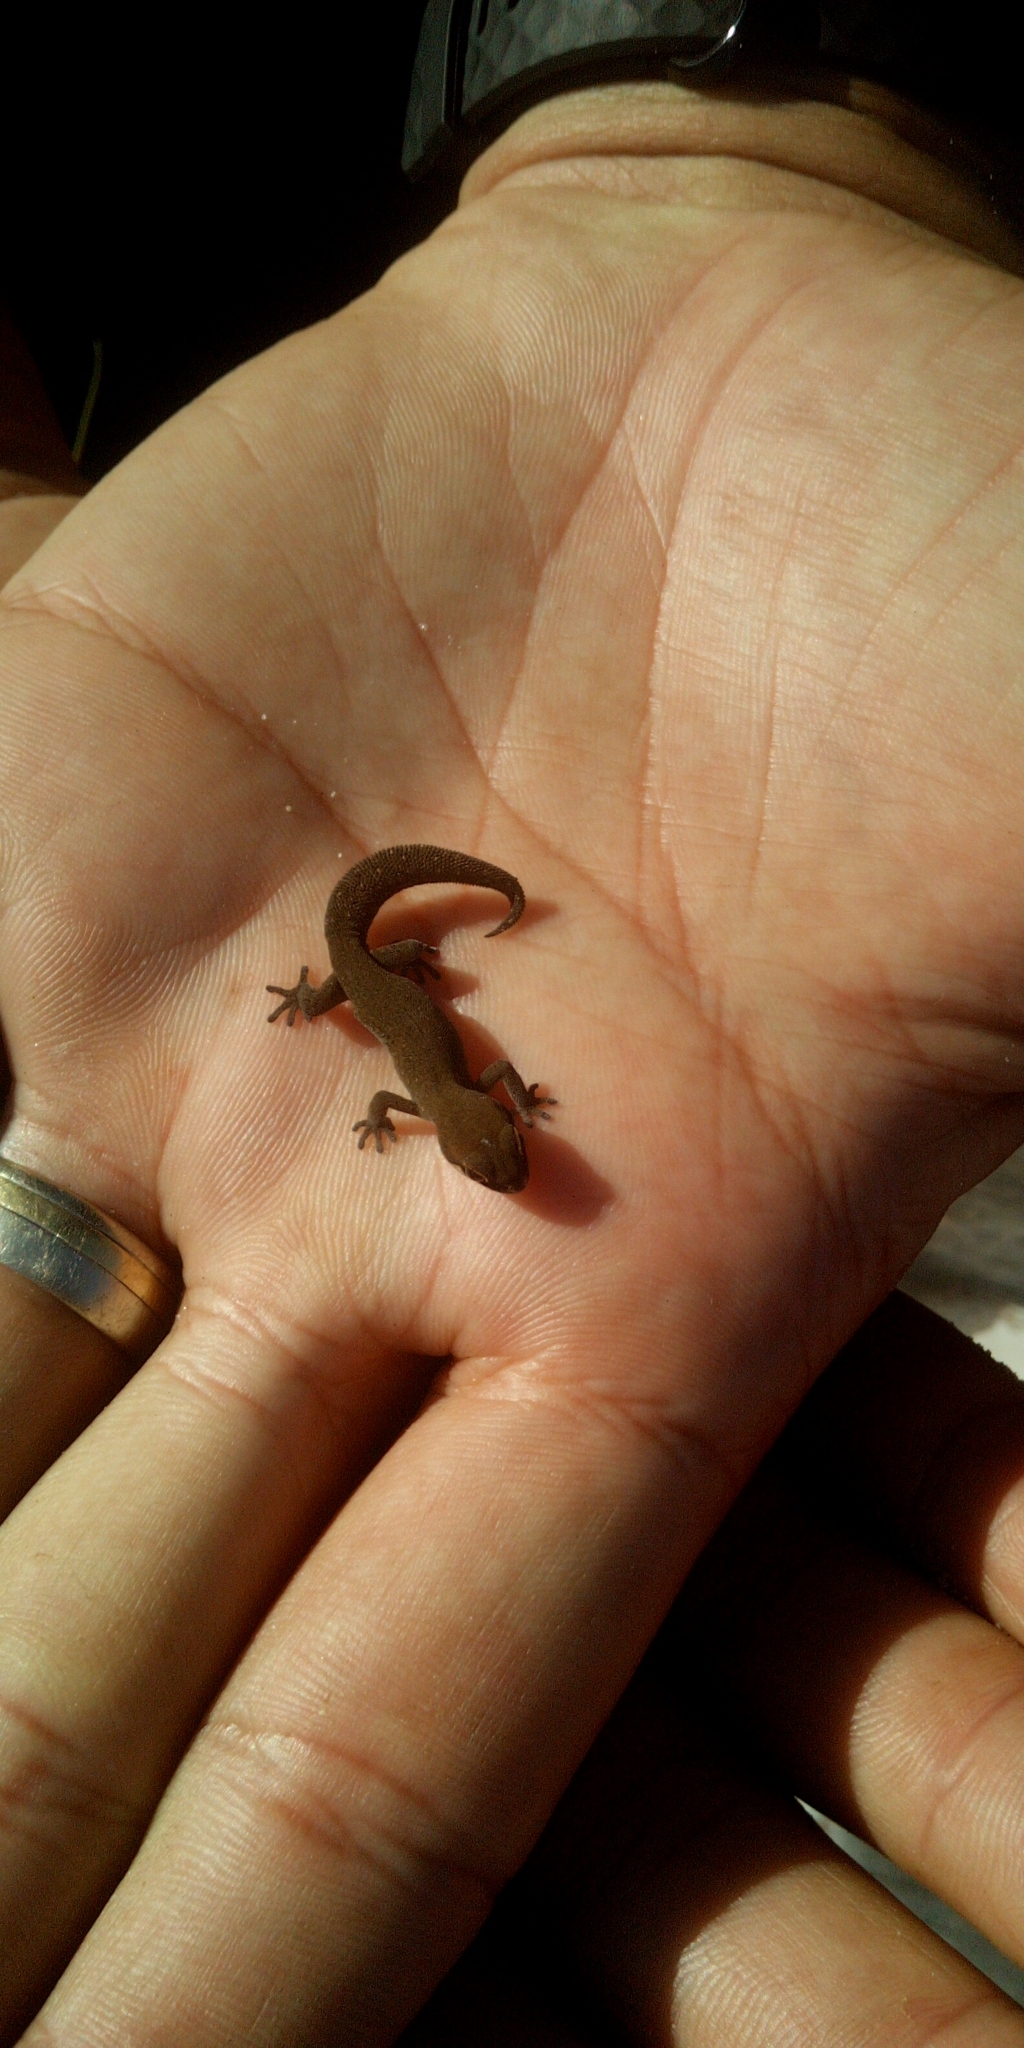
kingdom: Animalia
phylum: Chordata
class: Squamata
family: Gekkonidae
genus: Pachydactylus
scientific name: Pachydactylus geitje
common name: Ocellated thick-toed gecko
